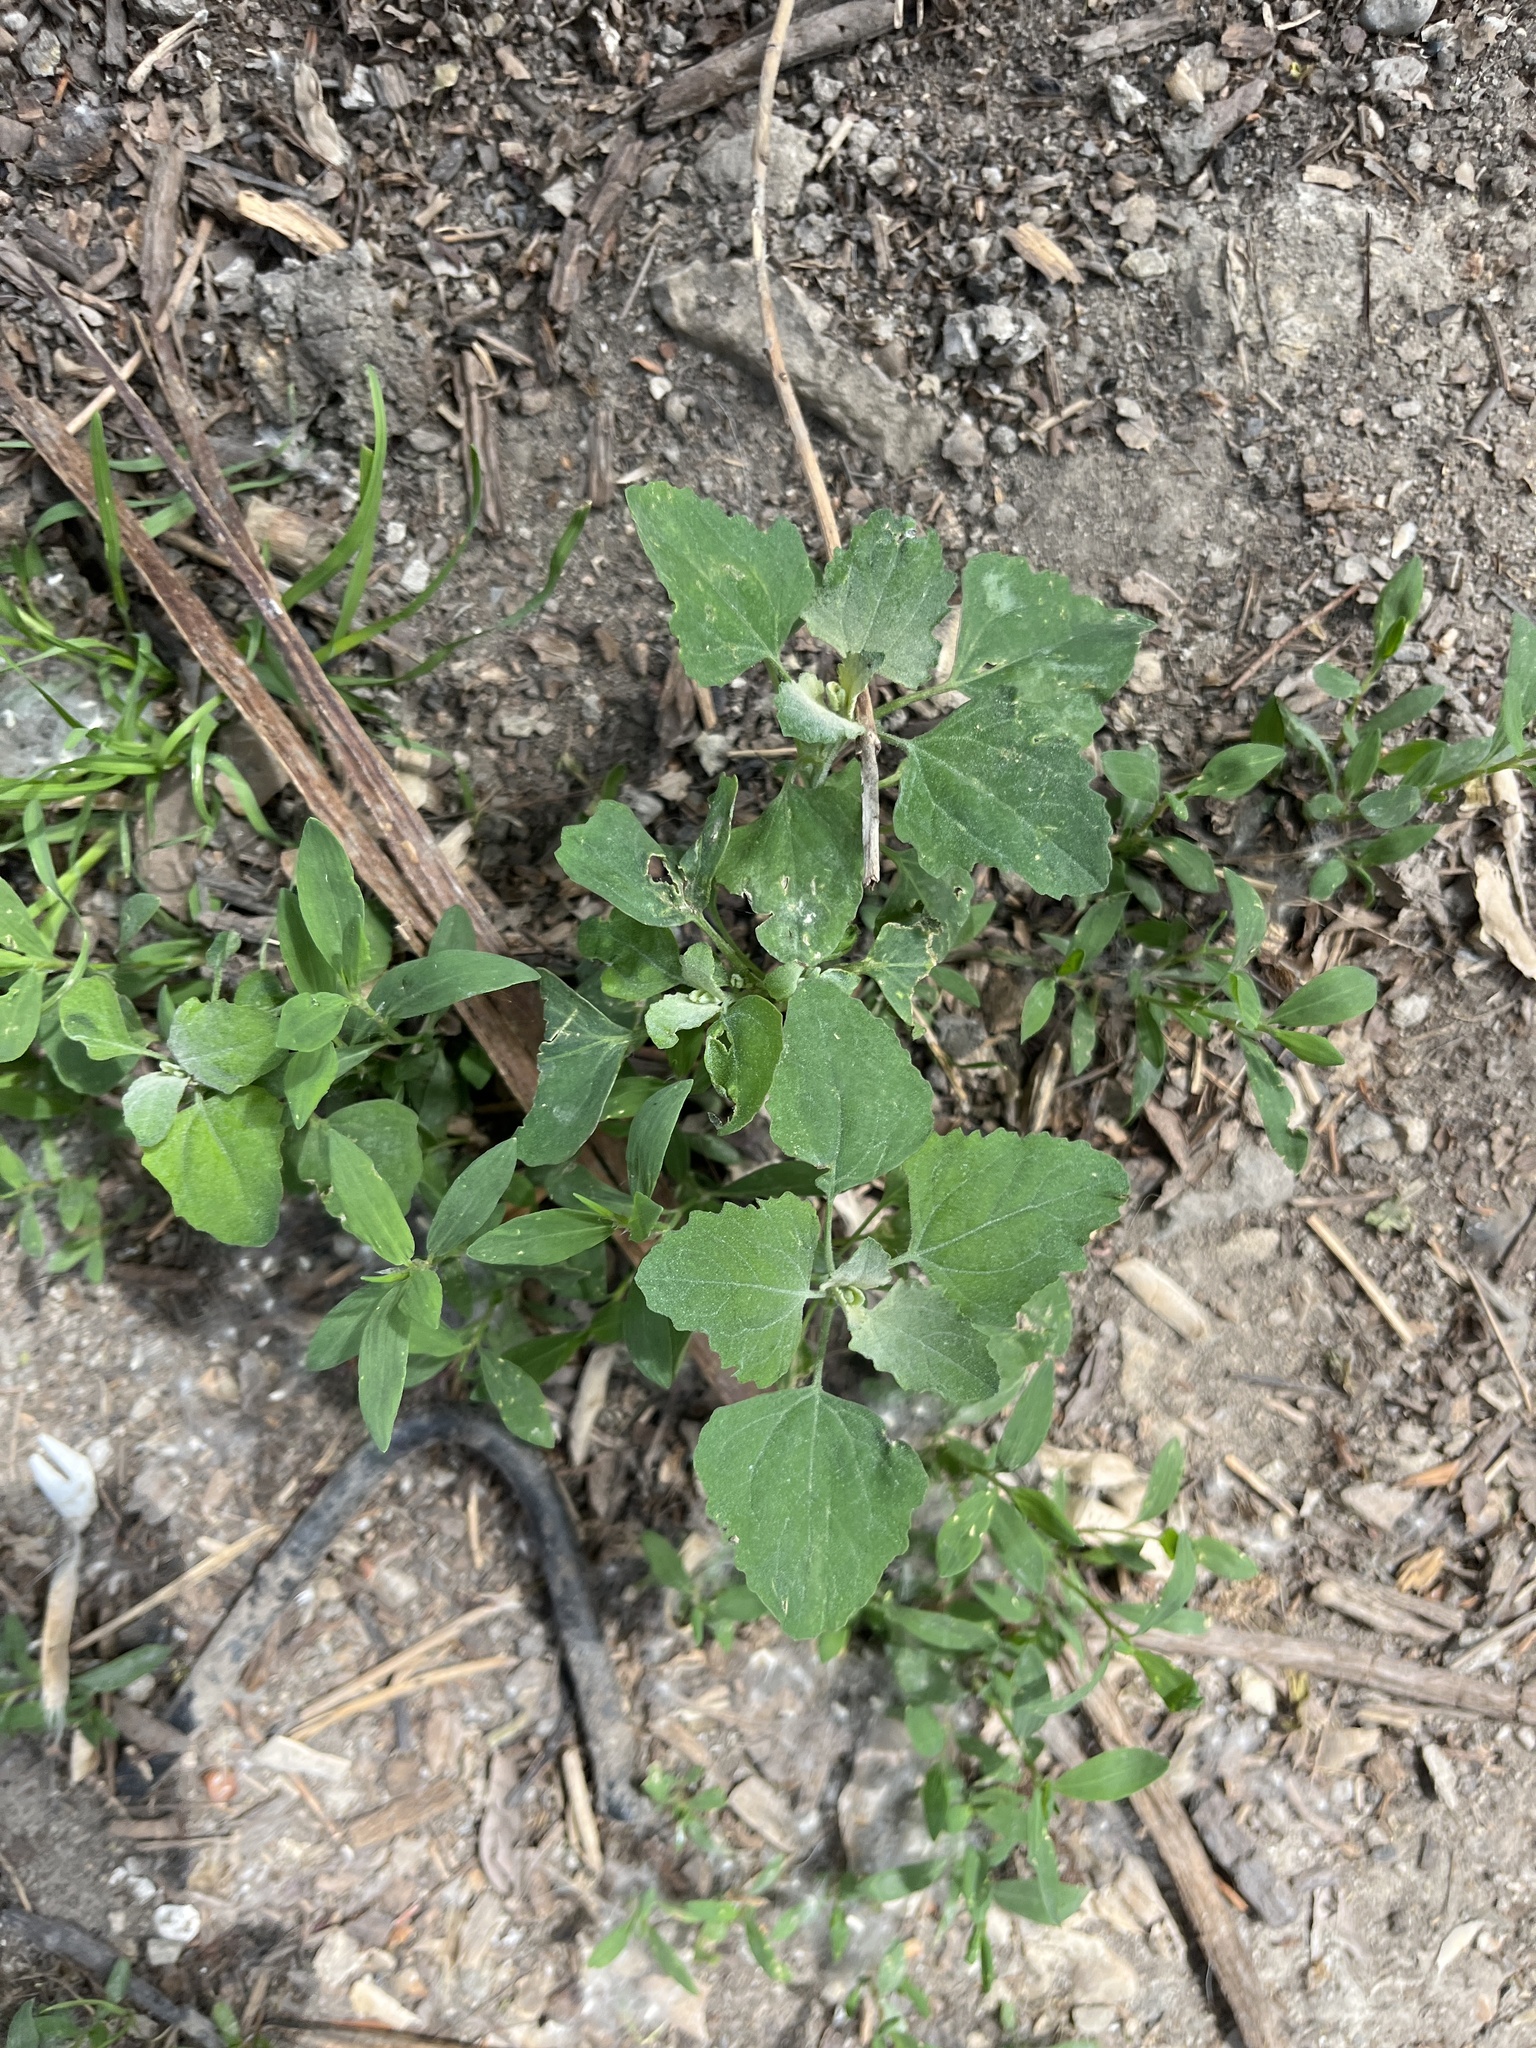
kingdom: Plantae
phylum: Tracheophyta
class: Magnoliopsida
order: Caryophyllales
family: Amaranthaceae
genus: Chenopodium
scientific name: Chenopodium album
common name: Fat-hen
